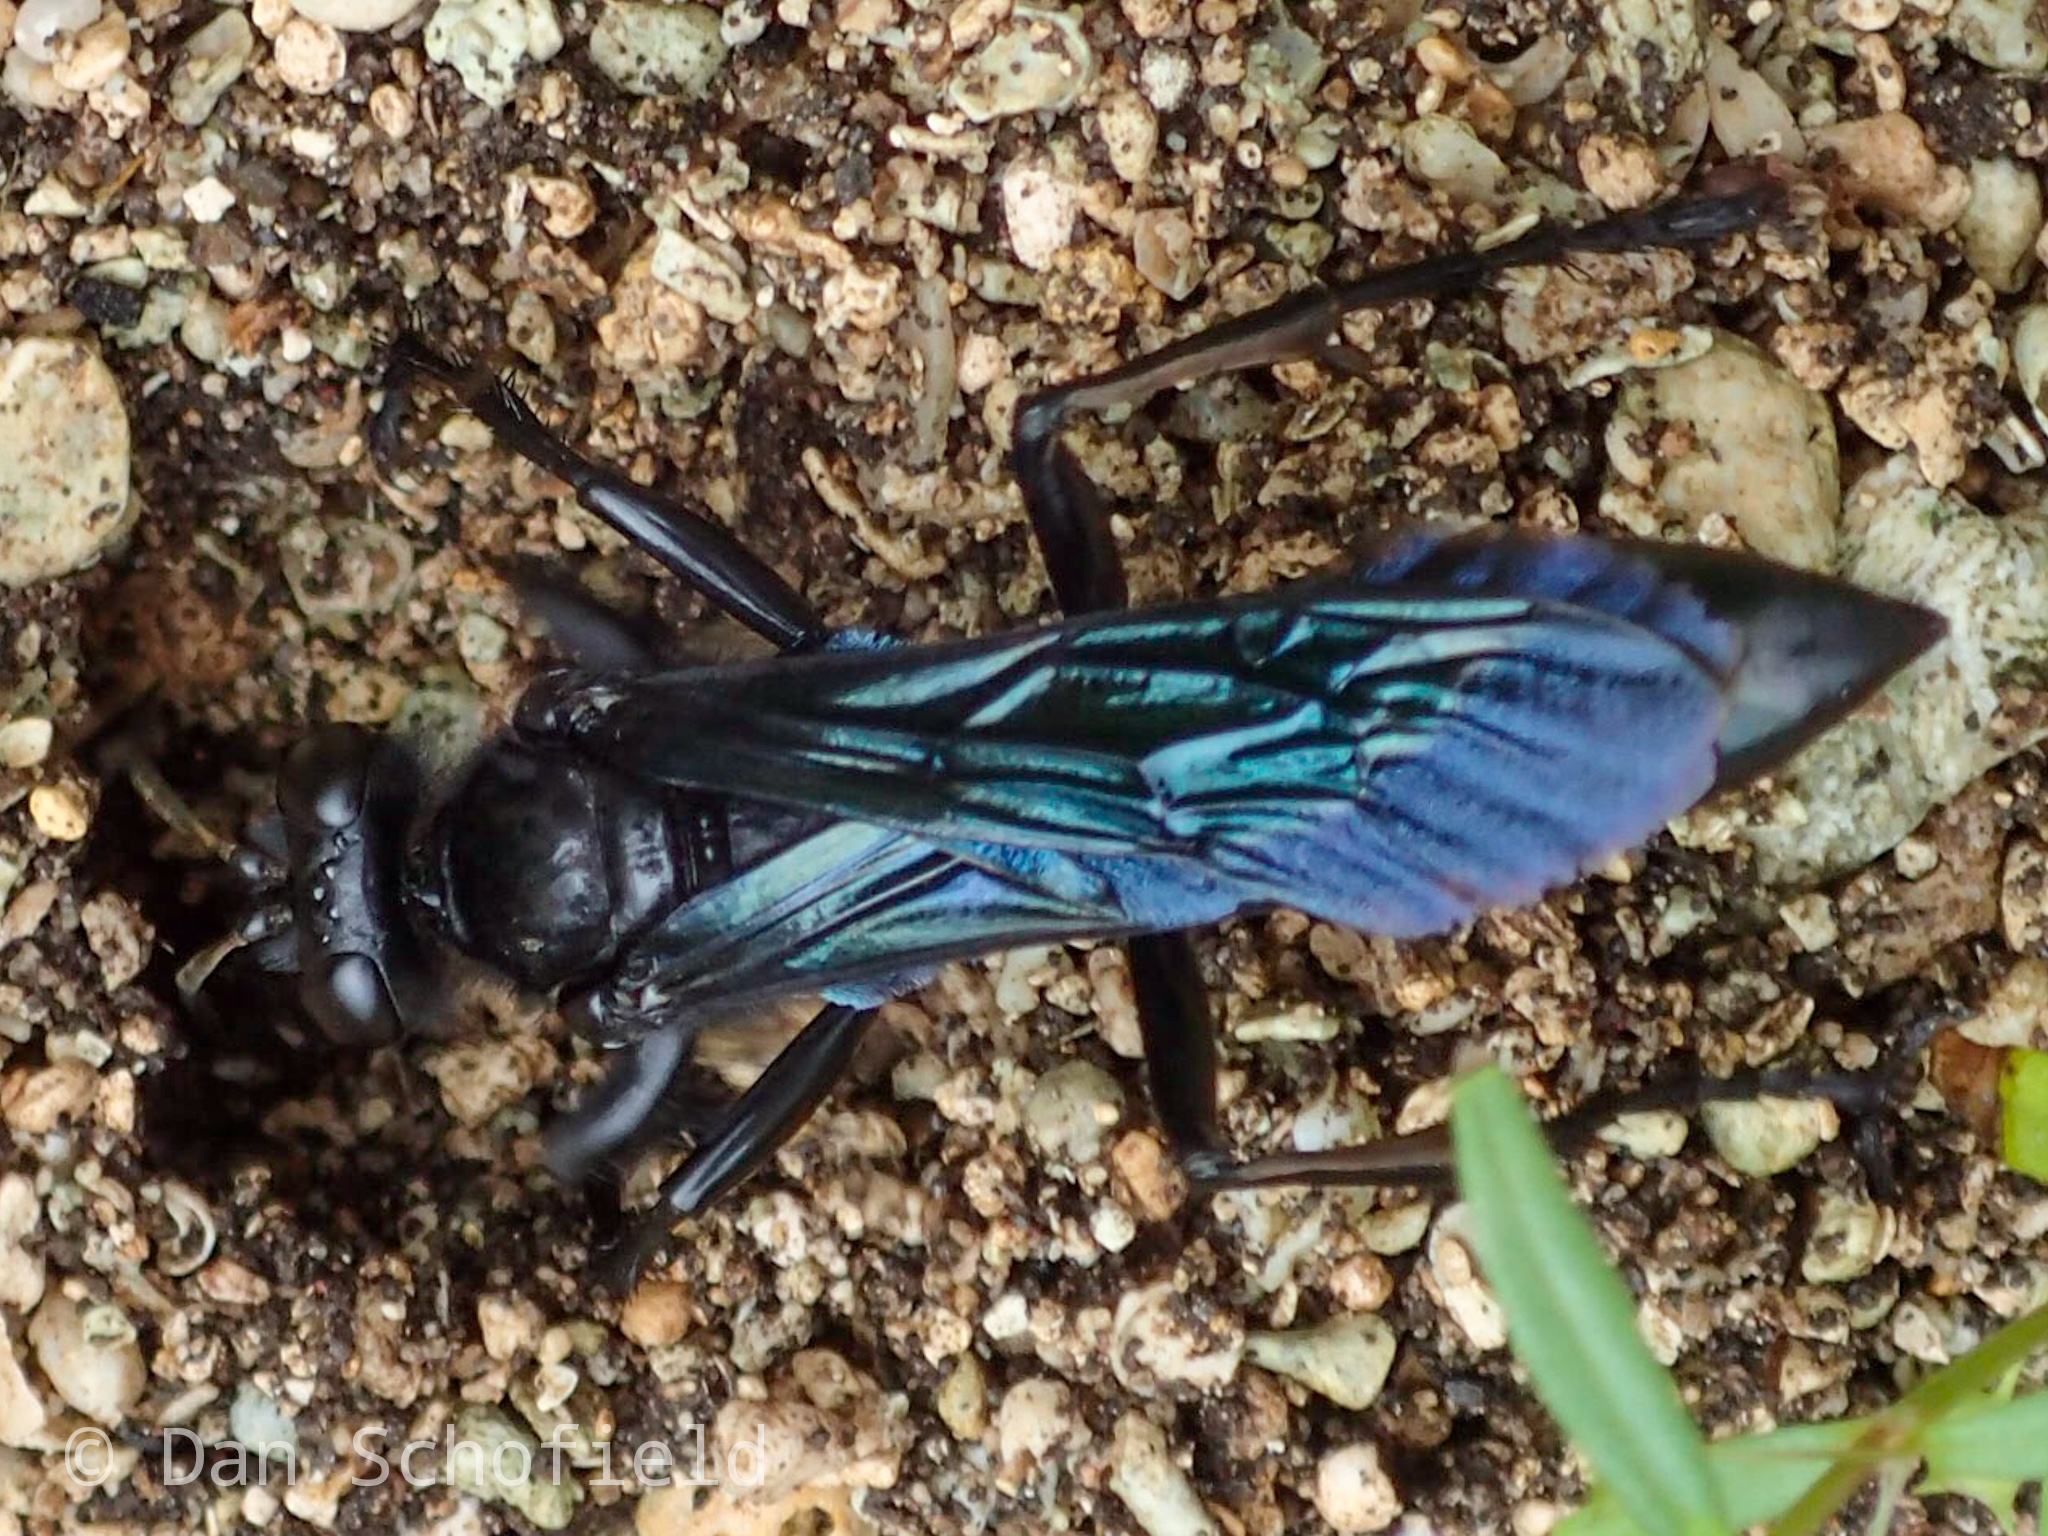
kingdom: Animalia
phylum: Arthropoda
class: Insecta
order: Hymenoptera
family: Sphecidae
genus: Sphex
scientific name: Sphex madasummae
